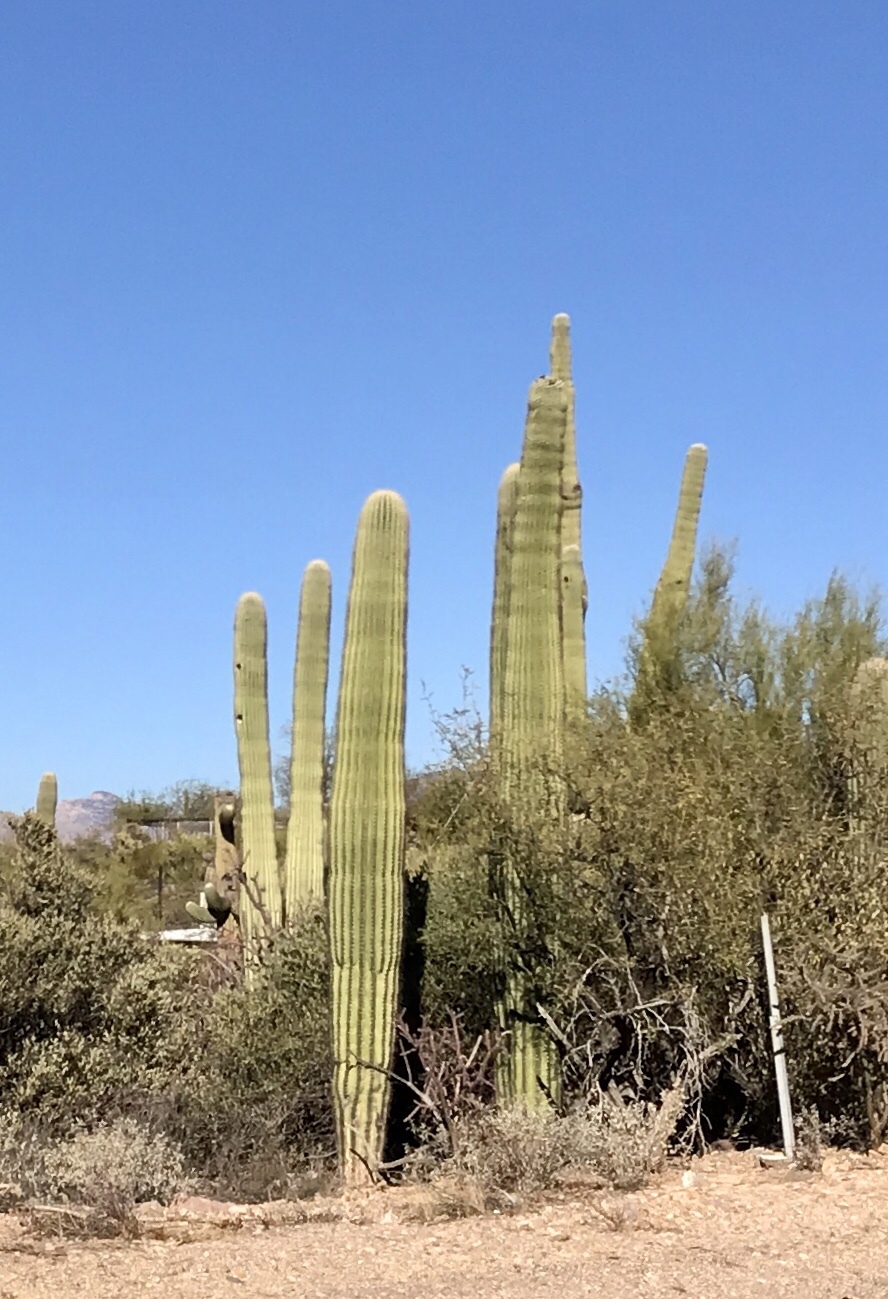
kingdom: Plantae
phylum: Tracheophyta
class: Magnoliopsida
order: Caryophyllales
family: Cactaceae
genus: Carnegiea
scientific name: Carnegiea gigantea
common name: Saguaro
